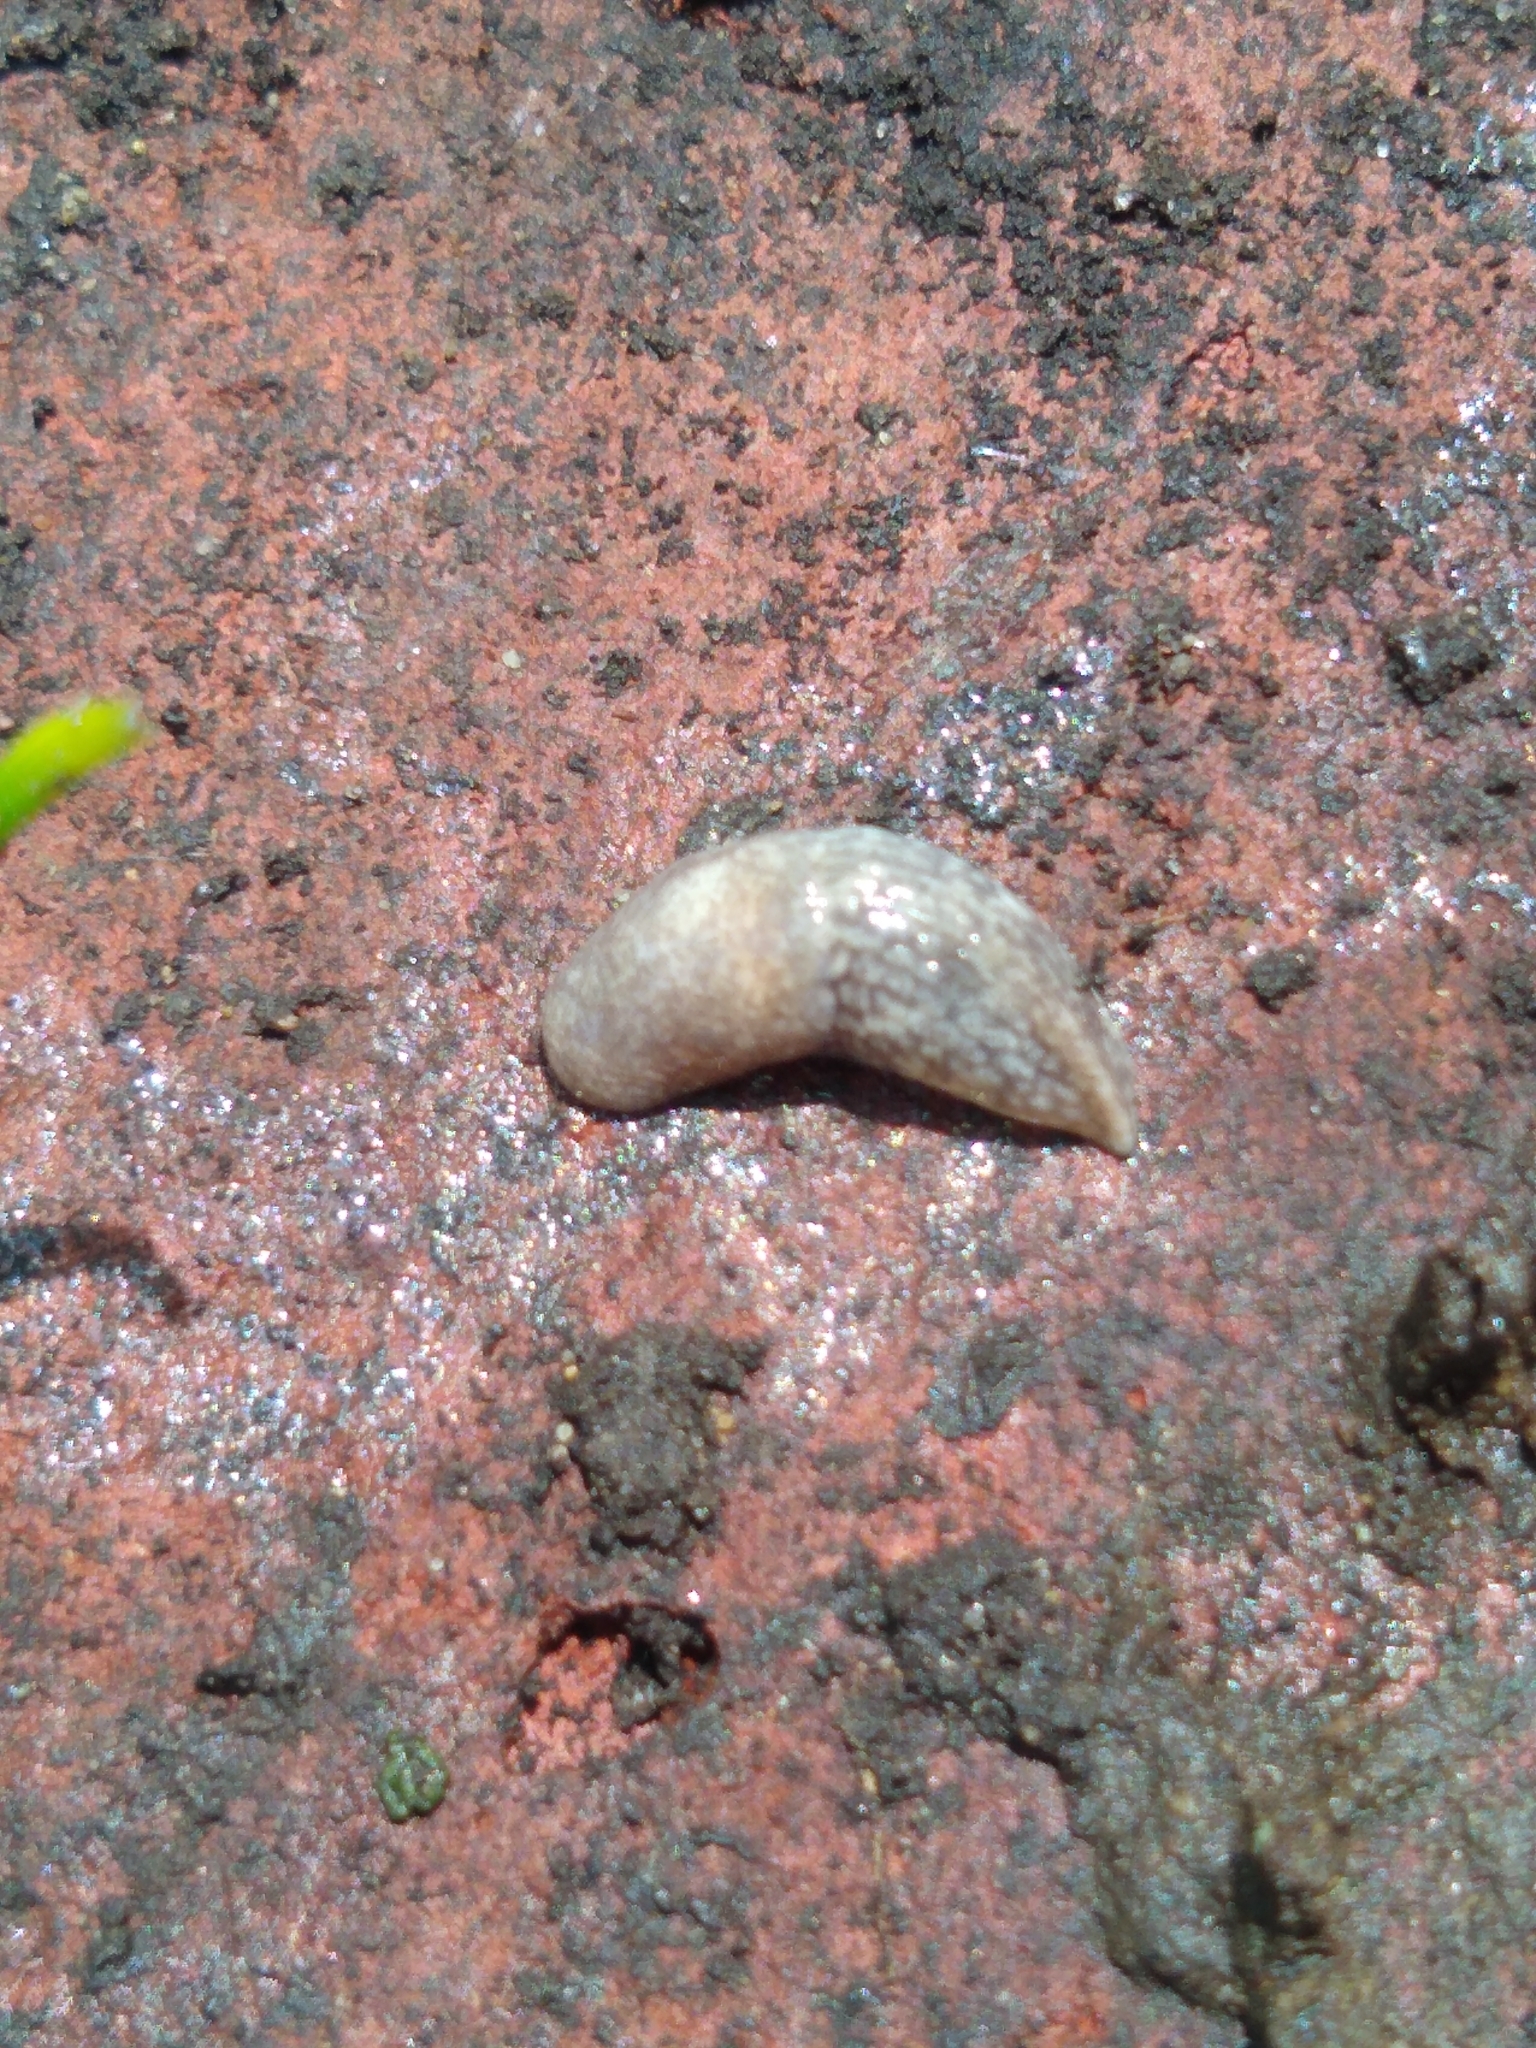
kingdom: Animalia
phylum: Mollusca
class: Gastropoda
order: Stylommatophora
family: Agriolimacidae
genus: Deroceras
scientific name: Deroceras reticulatum
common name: Gray field slug
